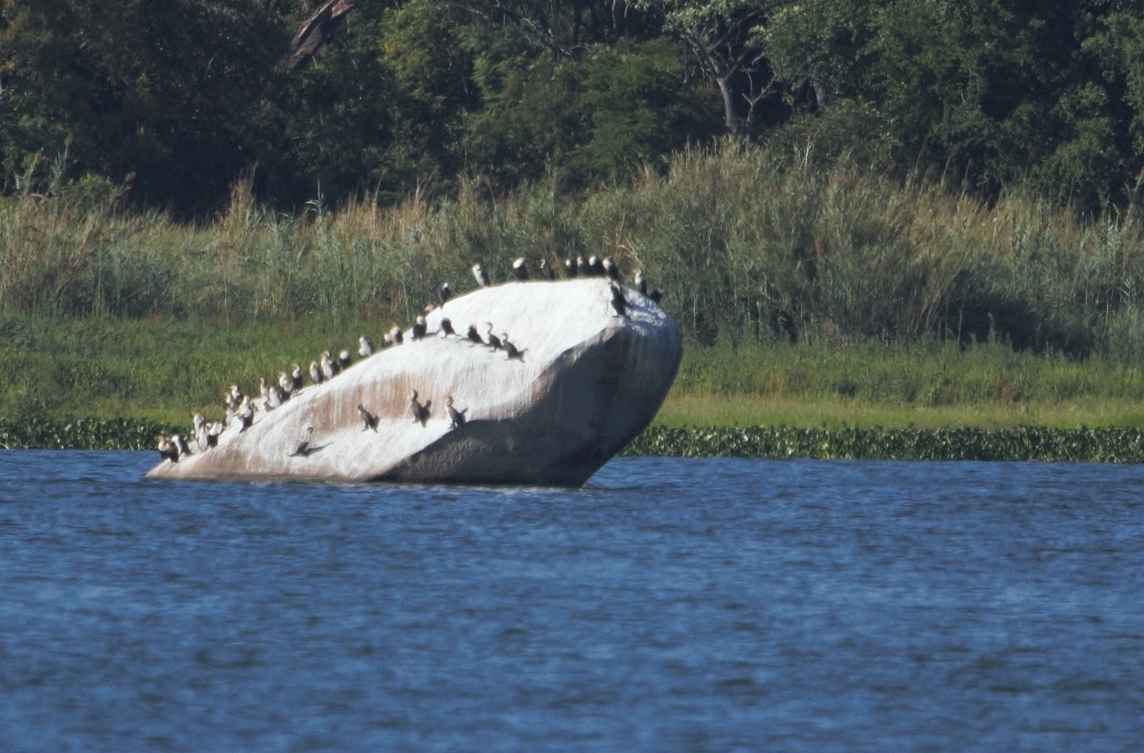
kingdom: Animalia
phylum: Chordata
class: Aves
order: Suliformes
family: Phalacrocoracidae
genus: Phalacrocorax
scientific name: Phalacrocorax carbo
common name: Great cormorant
